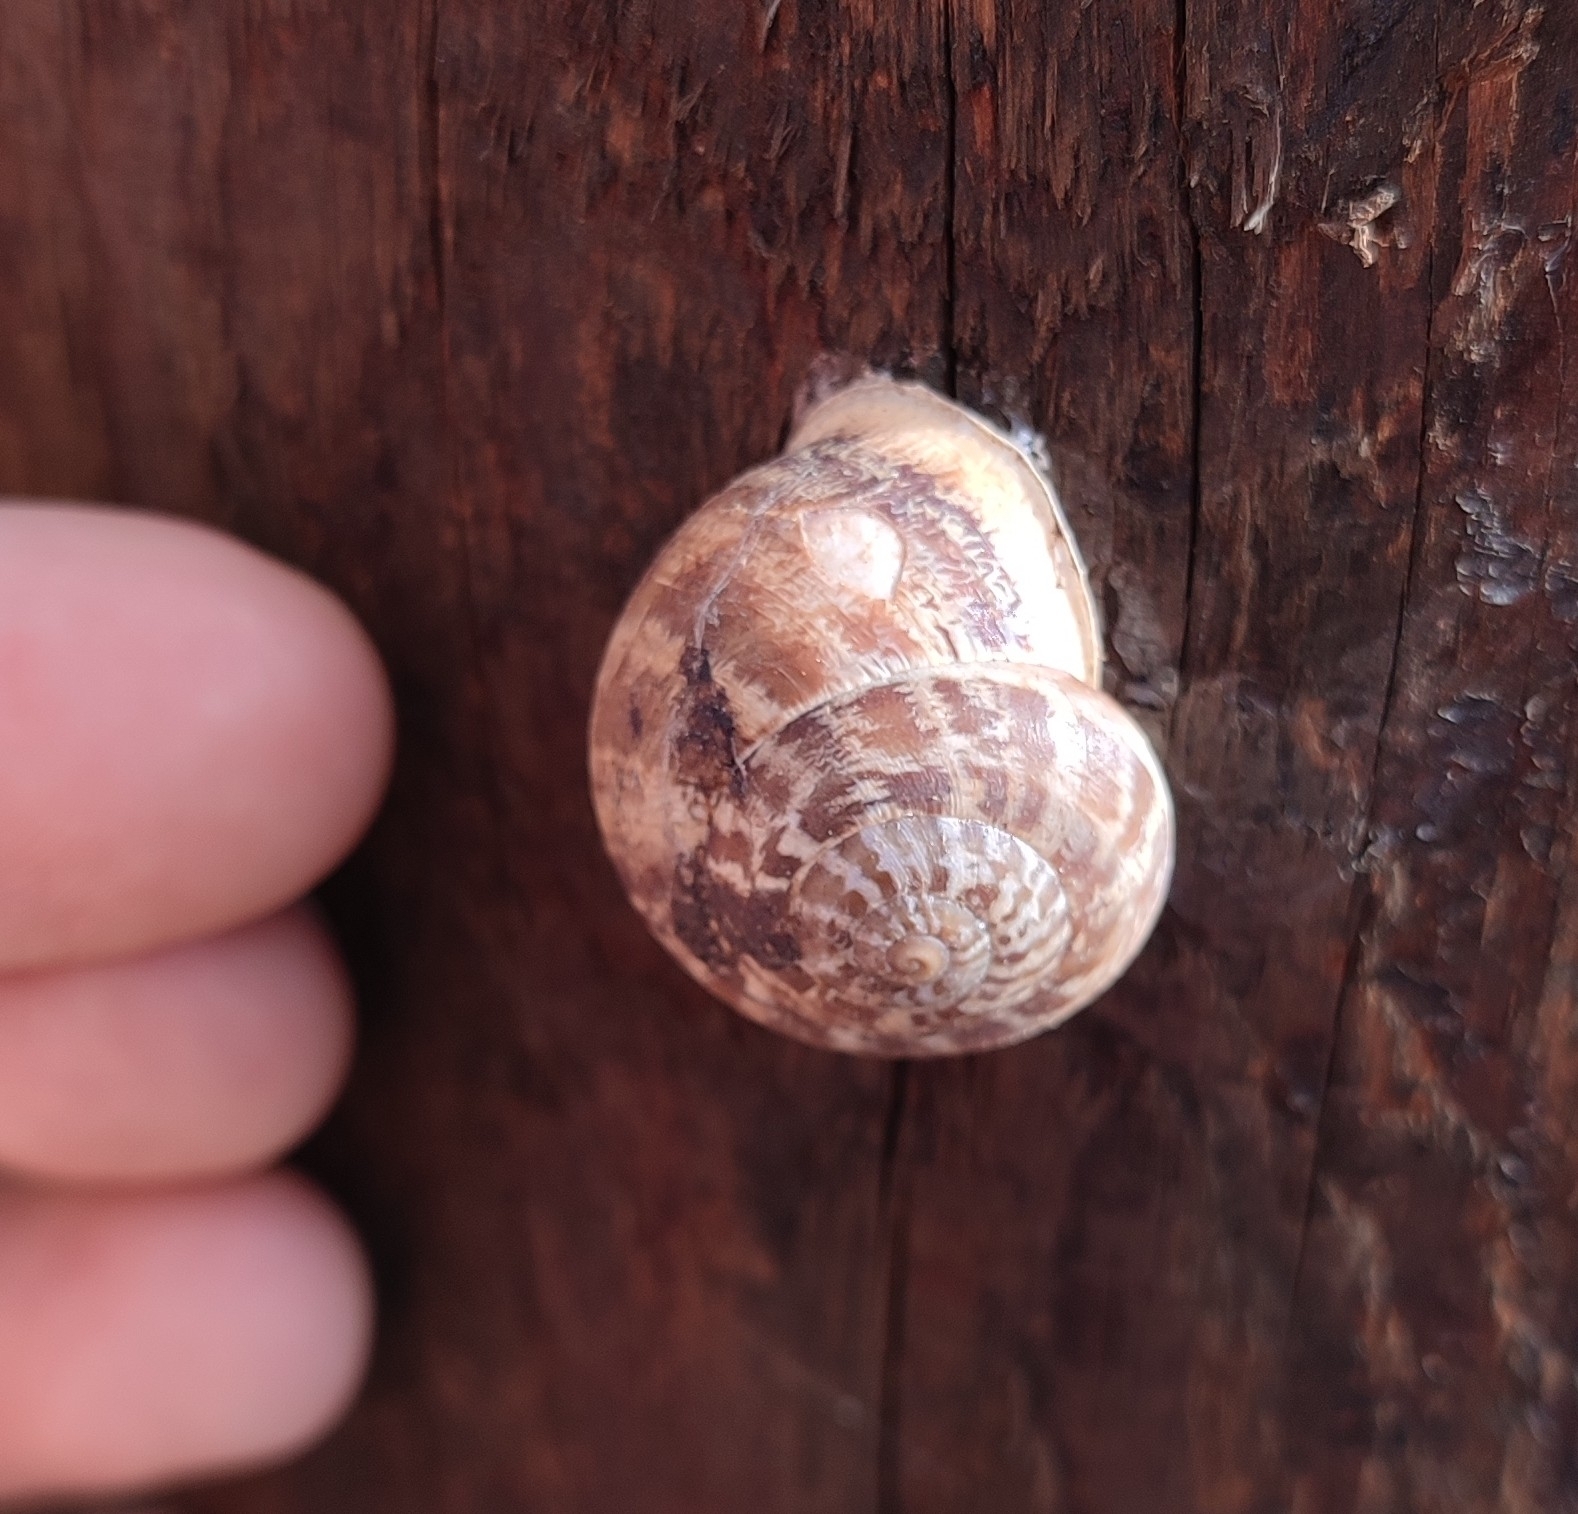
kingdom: Animalia
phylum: Mollusca
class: Gastropoda
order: Stylommatophora
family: Helicidae
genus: Eobania
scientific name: Eobania vermiculata
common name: Chocolateband snail
